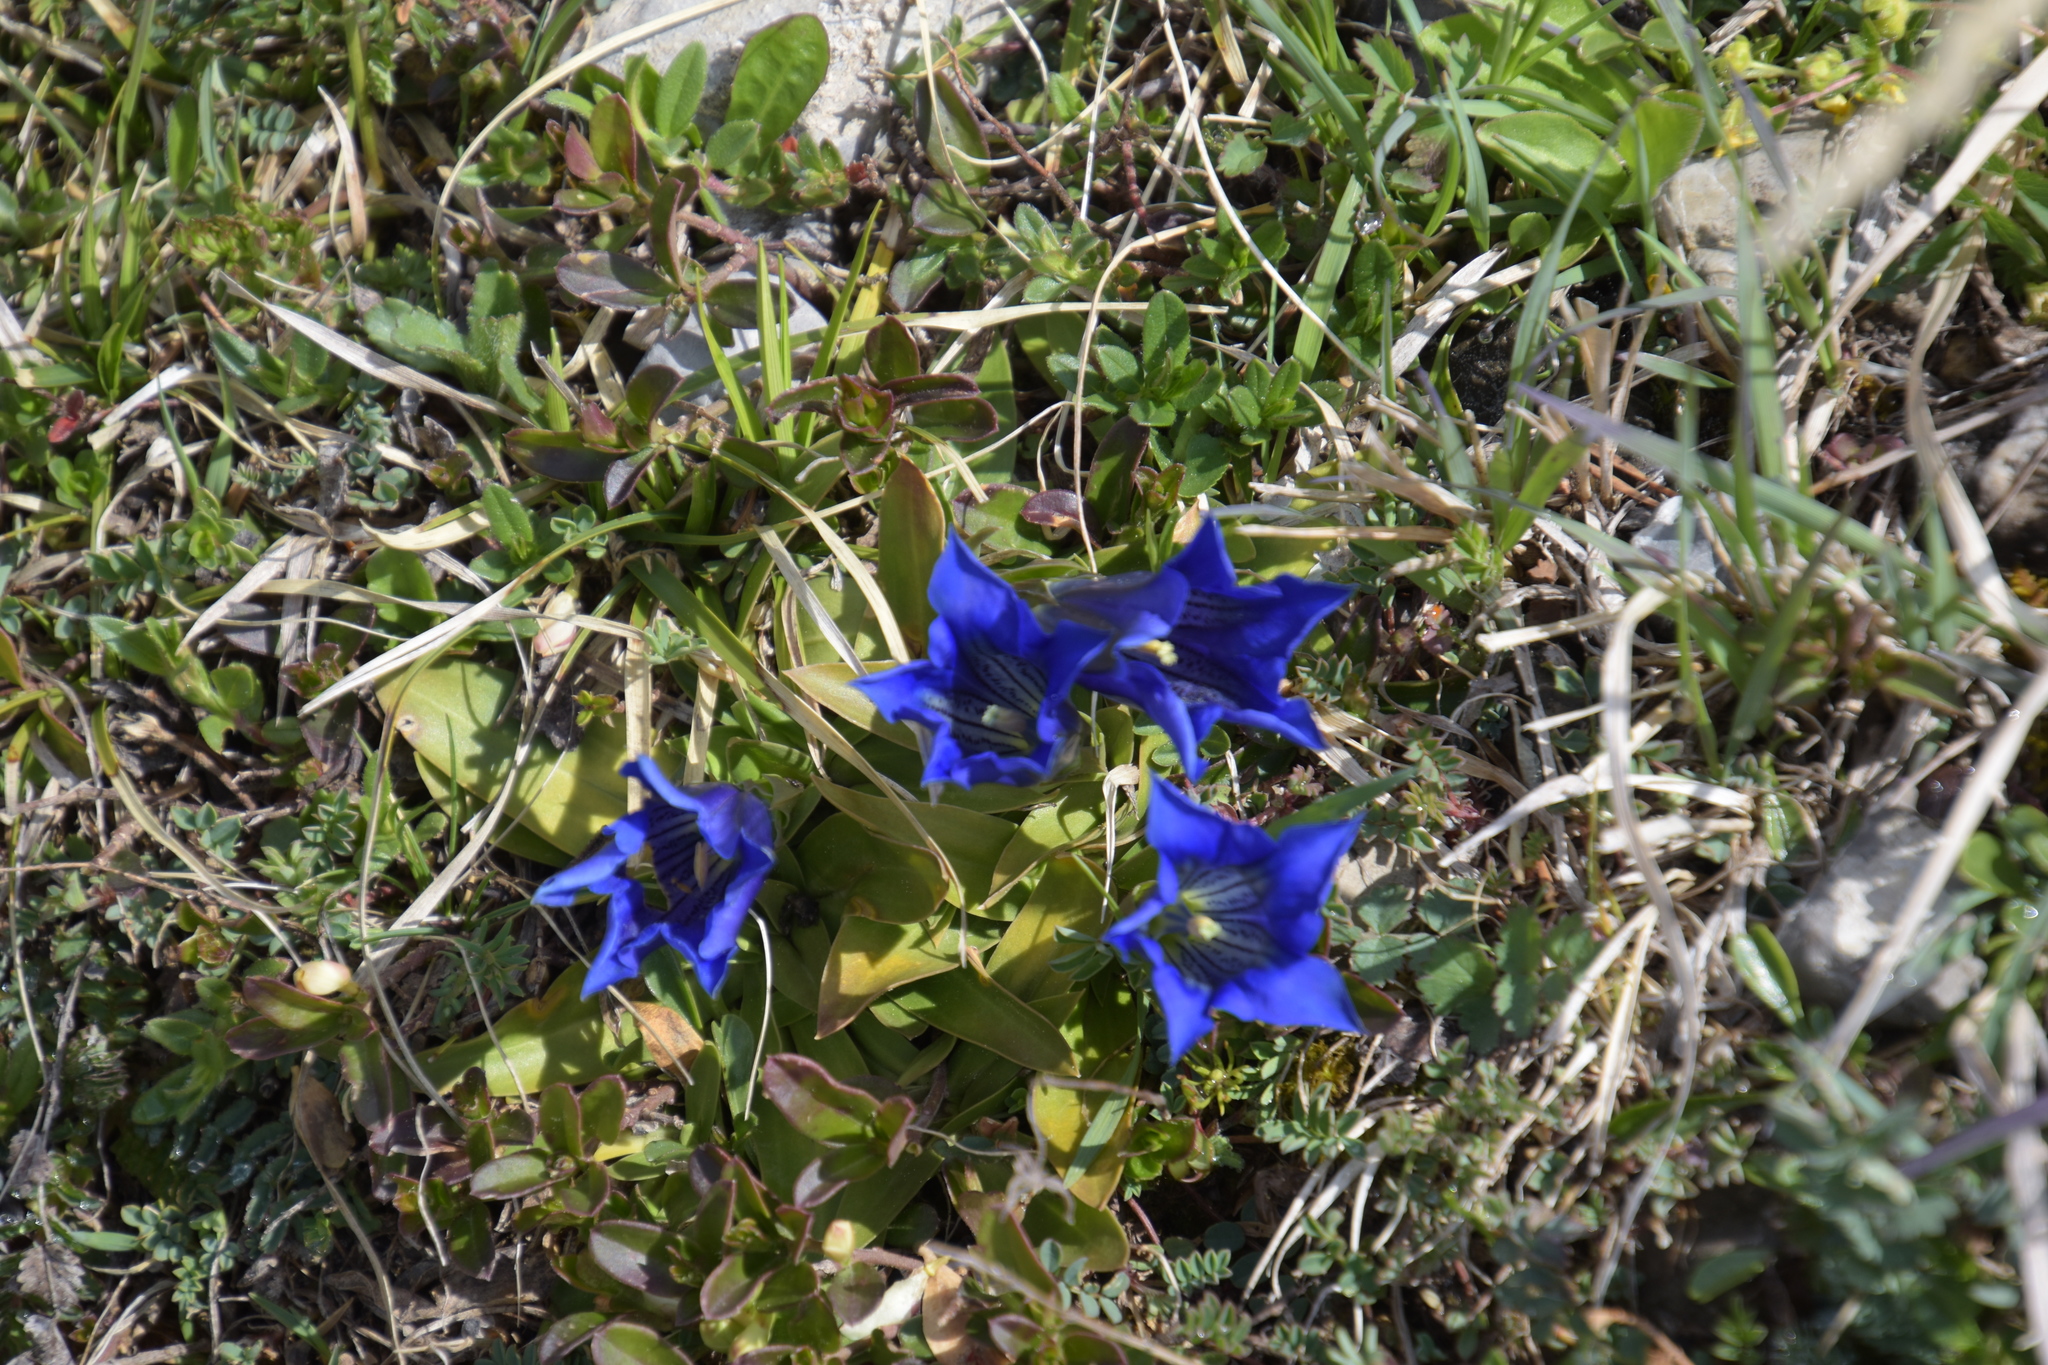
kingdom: Plantae
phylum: Tracheophyta
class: Magnoliopsida
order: Gentianales
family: Gentianaceae
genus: Gentiana
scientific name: Gentiana clusii
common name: Trumpet gentian
